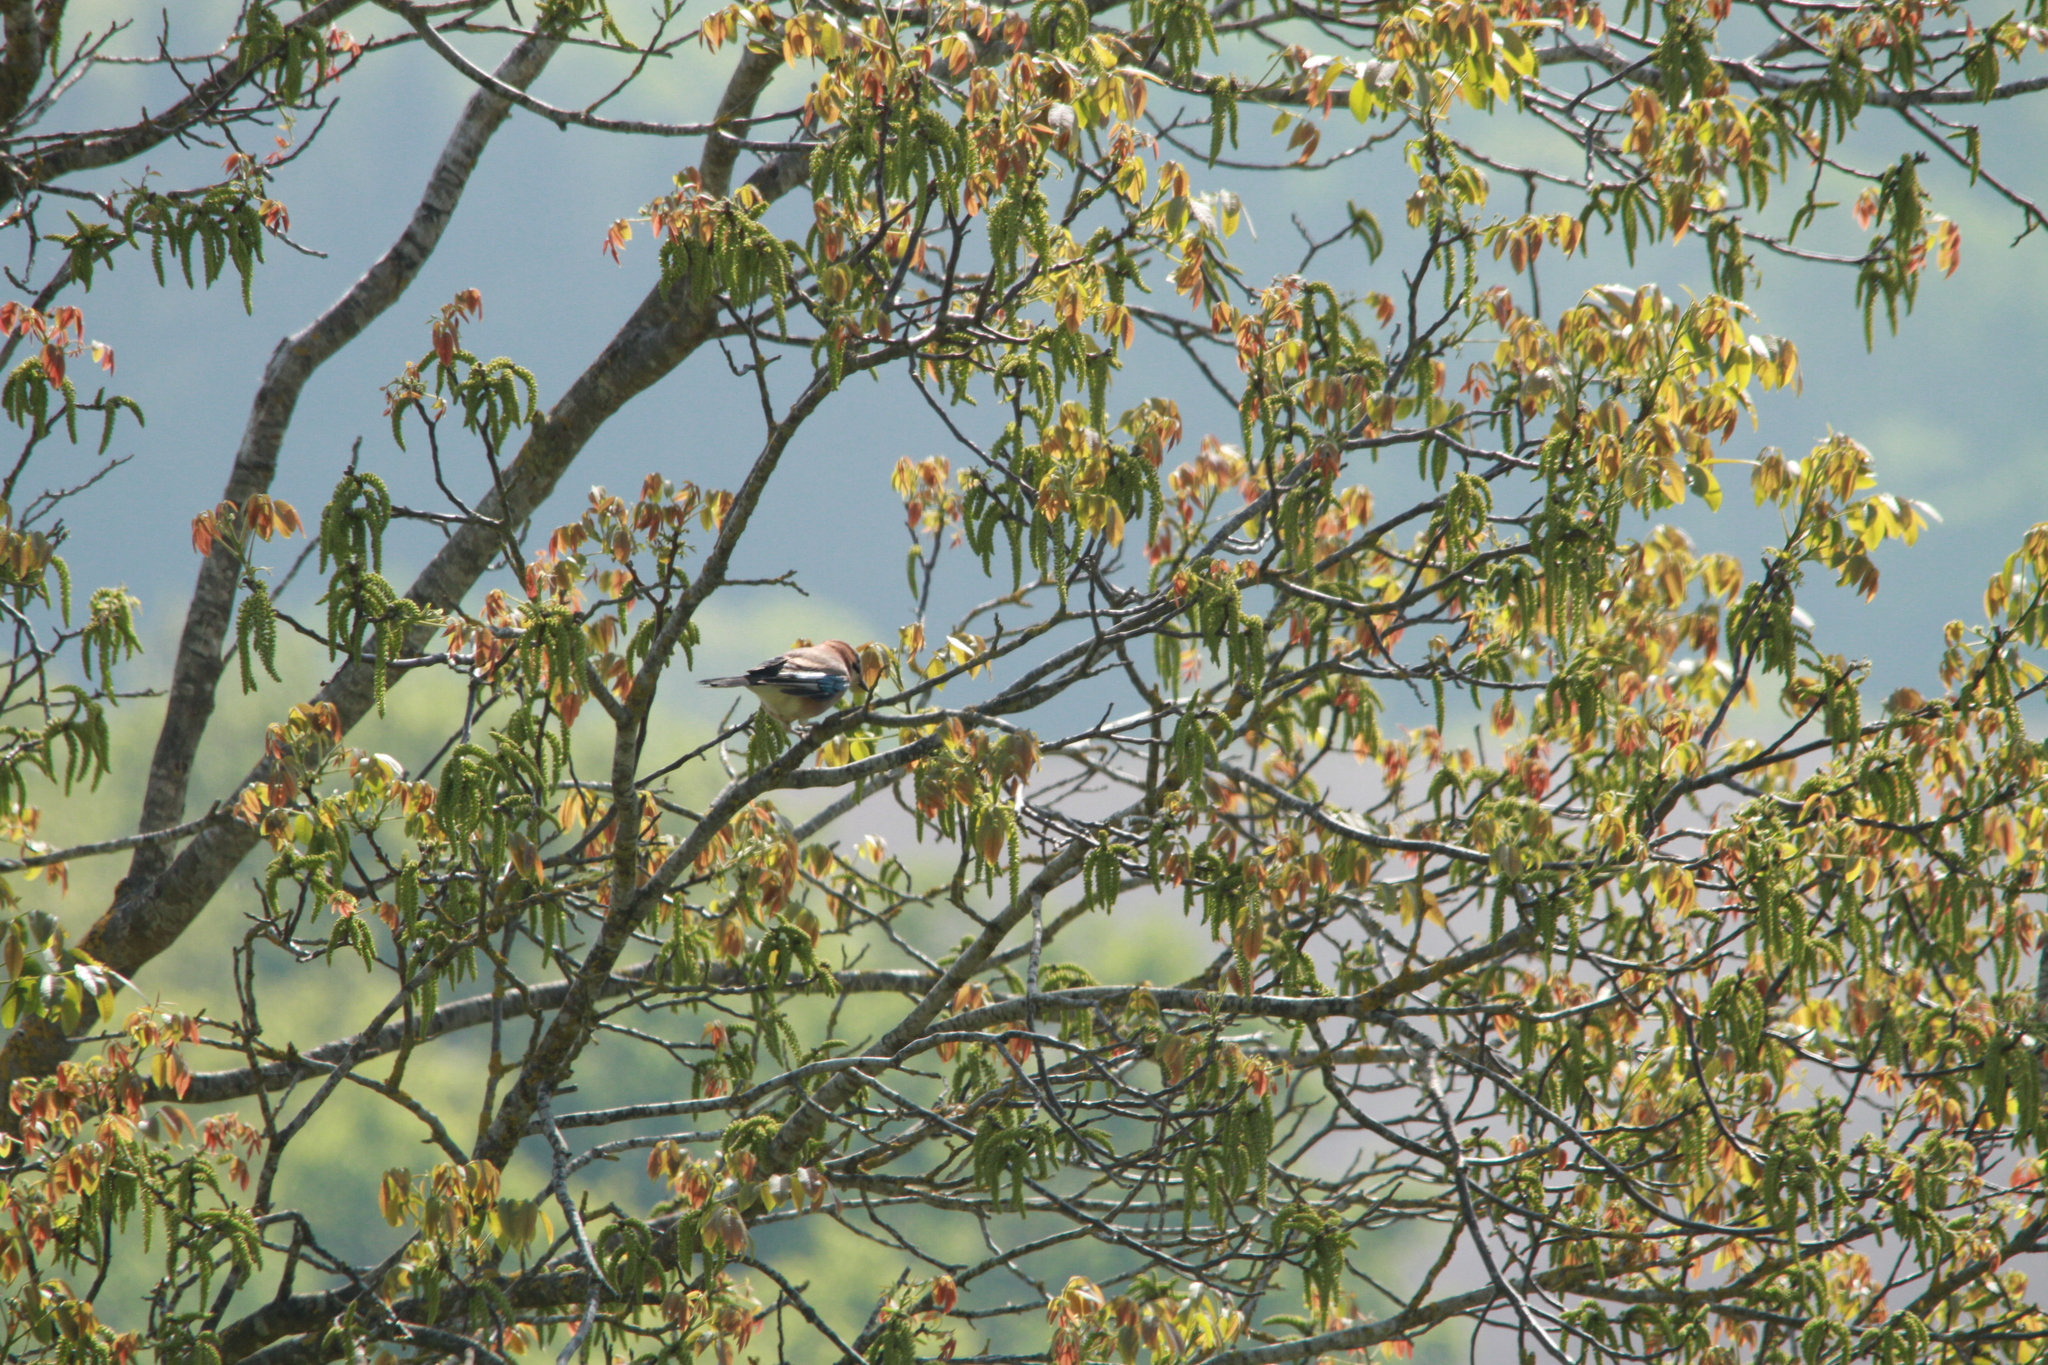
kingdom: Animalia
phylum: Chordata
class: Aves
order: Passeriformes
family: Corvidae
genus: Garrulus
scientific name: Garrulus glandarius
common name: Eurasian jay
